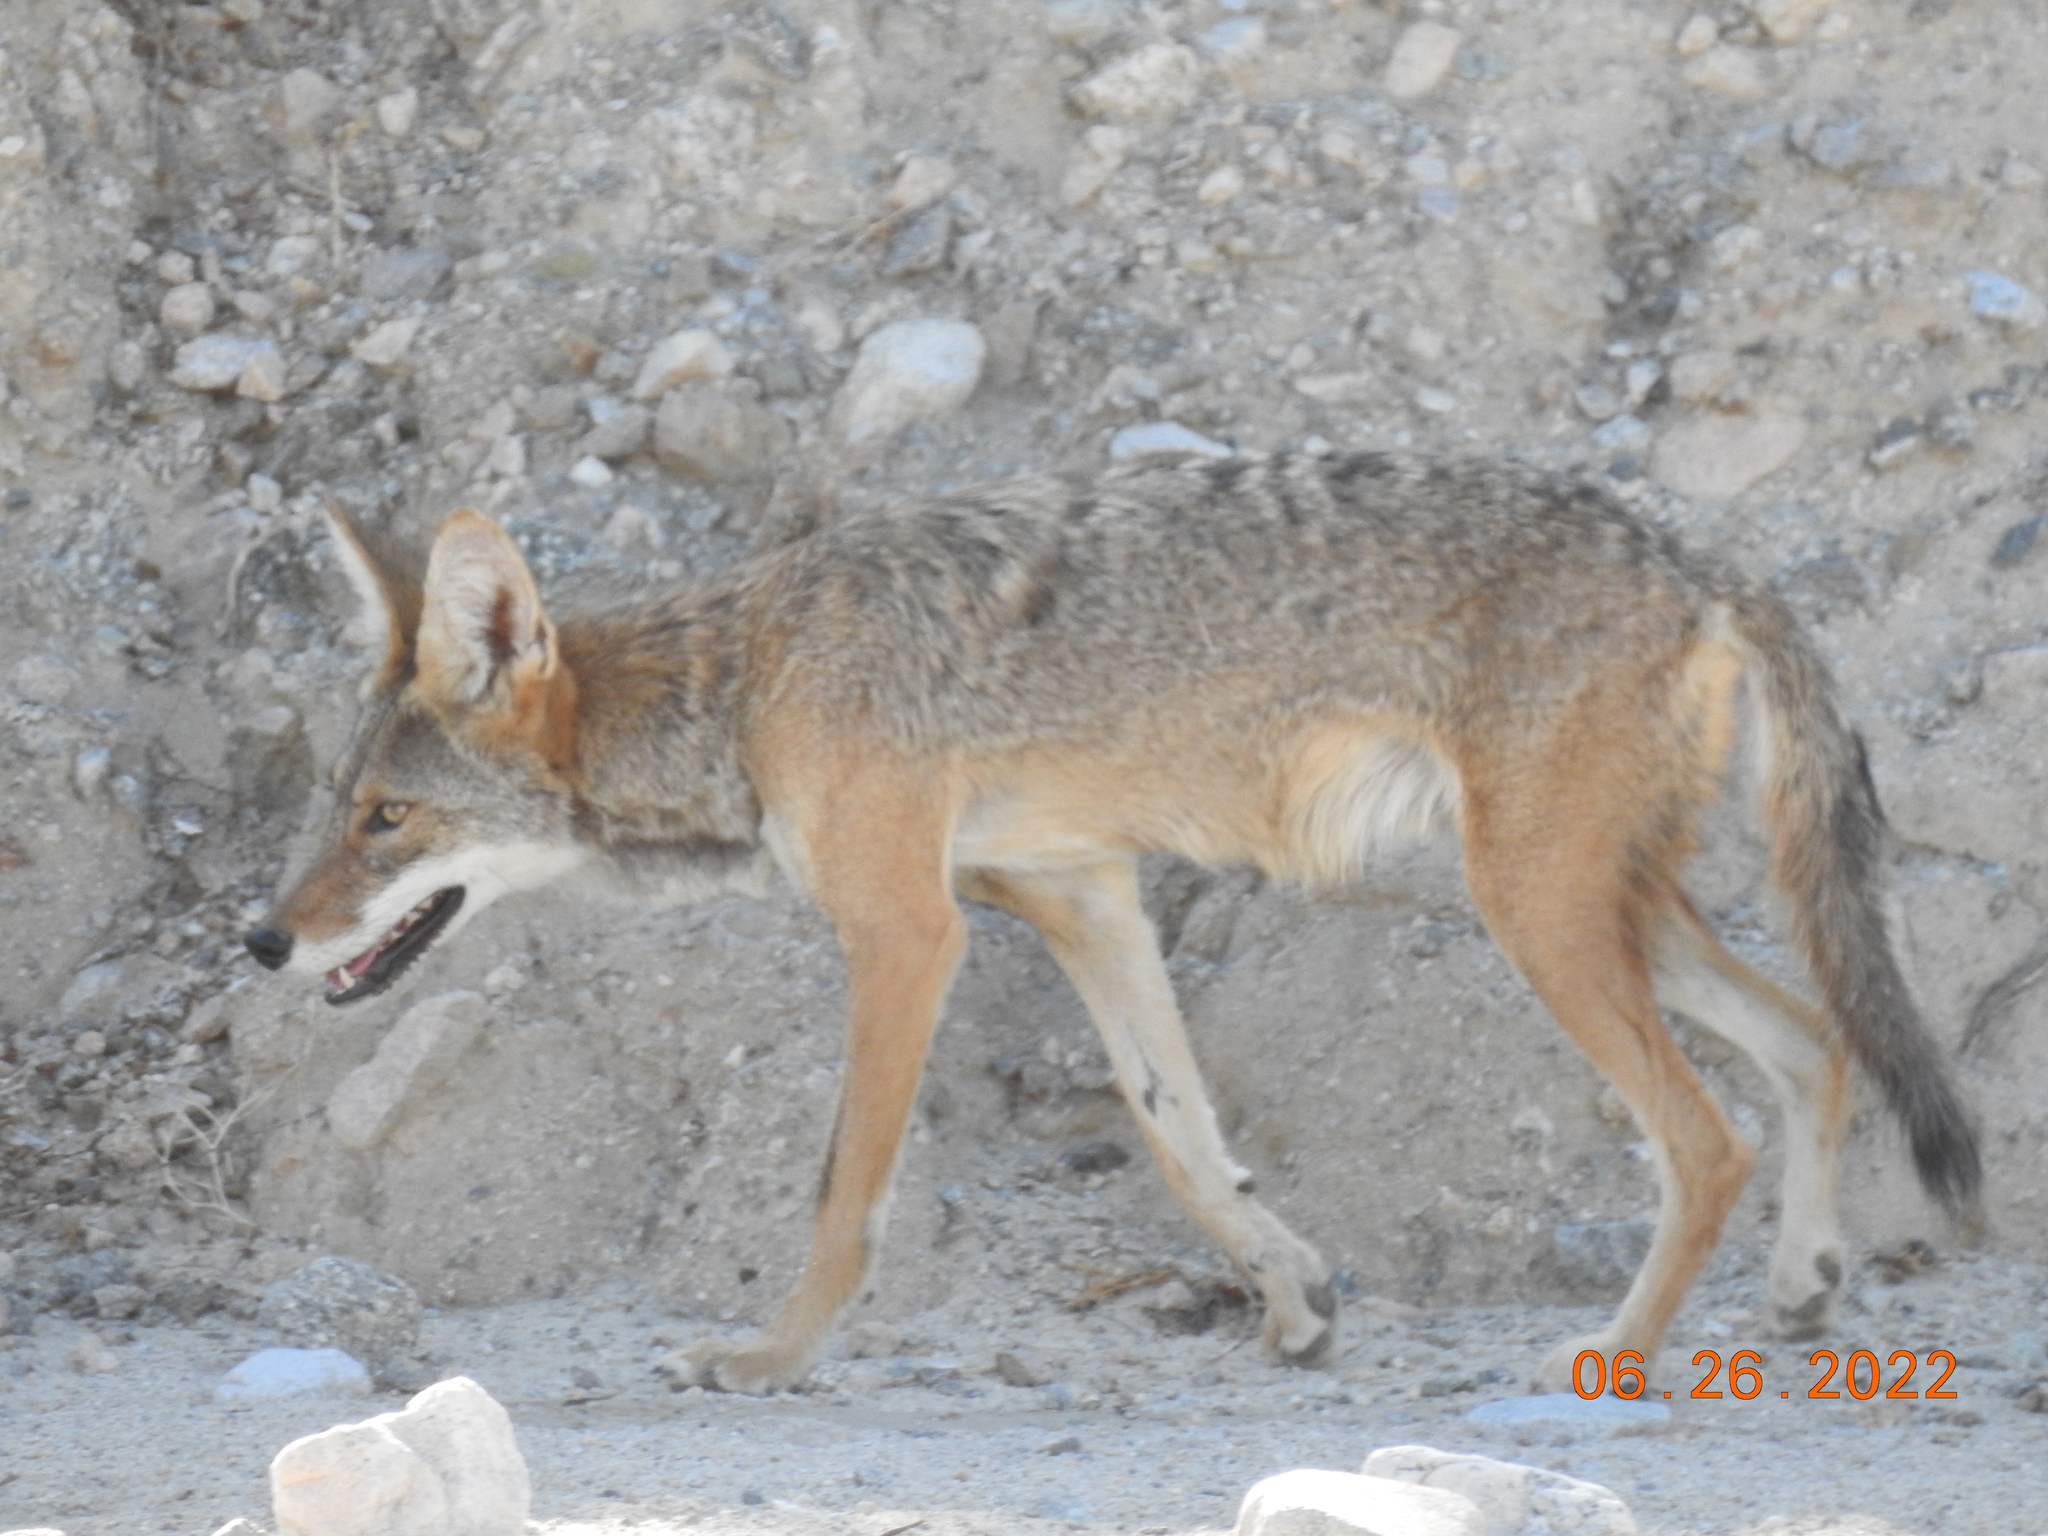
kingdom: Animalia
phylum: Chordata
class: Mammalia
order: Carnivora
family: Canidae
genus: Canis
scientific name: Canis latrans
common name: Coyote
